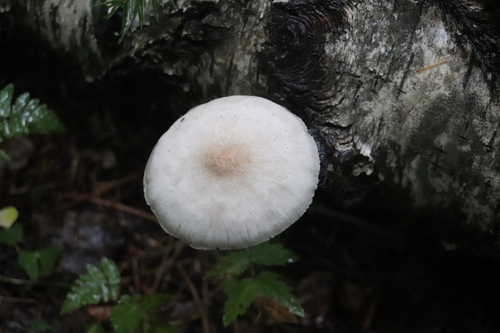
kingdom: Fungi
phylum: Basidiomycota
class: Agaricomycetes
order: Agaricales
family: Pluteaceae
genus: Pluteus
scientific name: Pluteus
